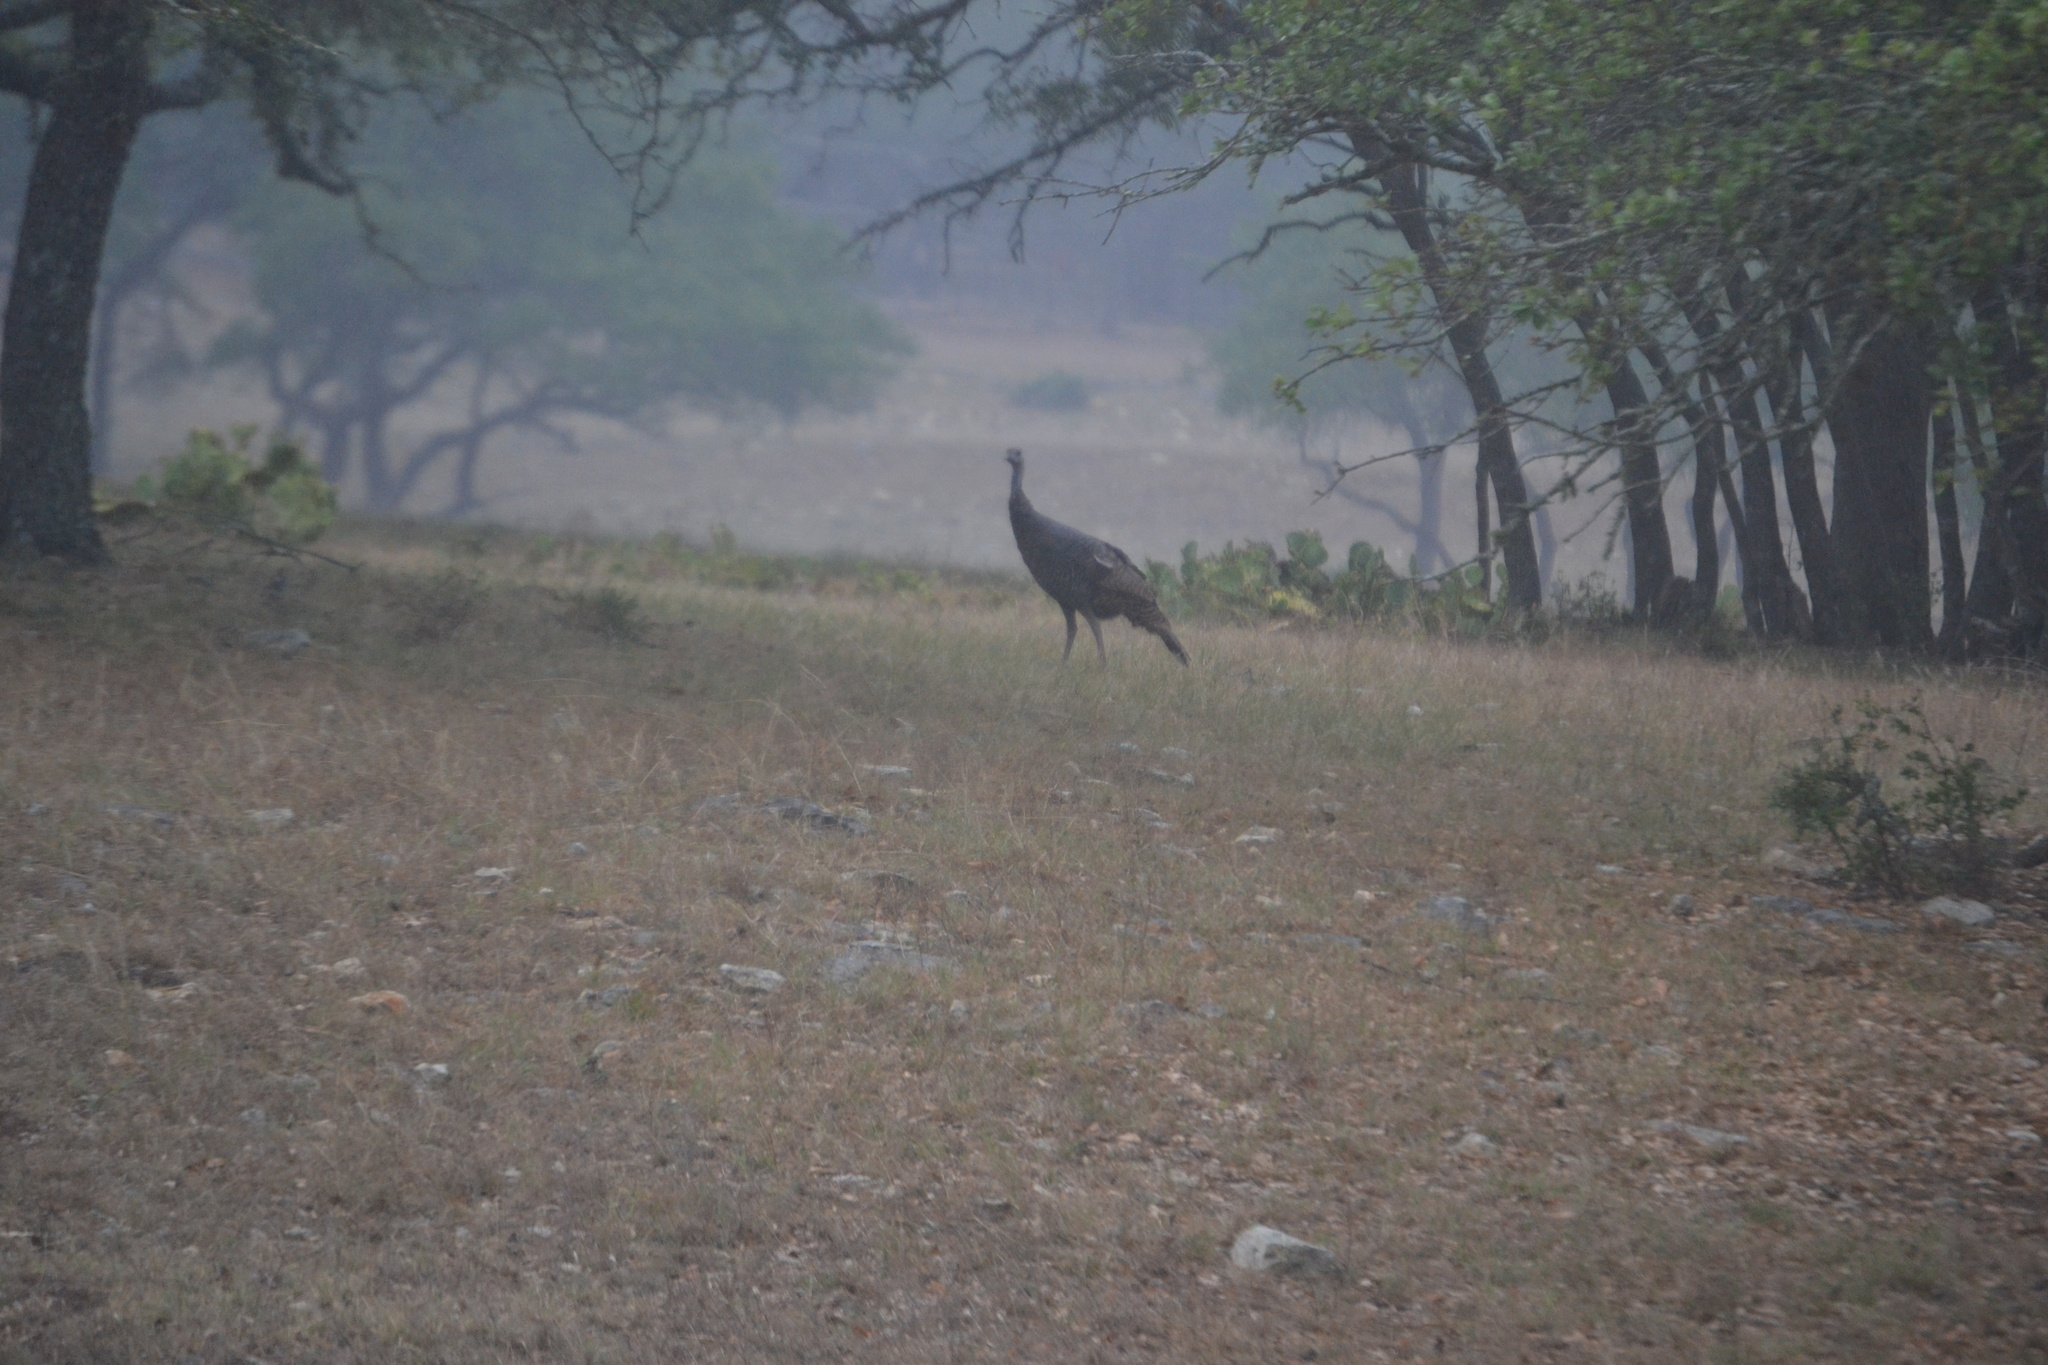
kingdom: Animalia
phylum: Chordata
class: Aves
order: Galliformes
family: Phasianidae
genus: Meleagris
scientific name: Meleagris gallopavo
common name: Wild turkey
